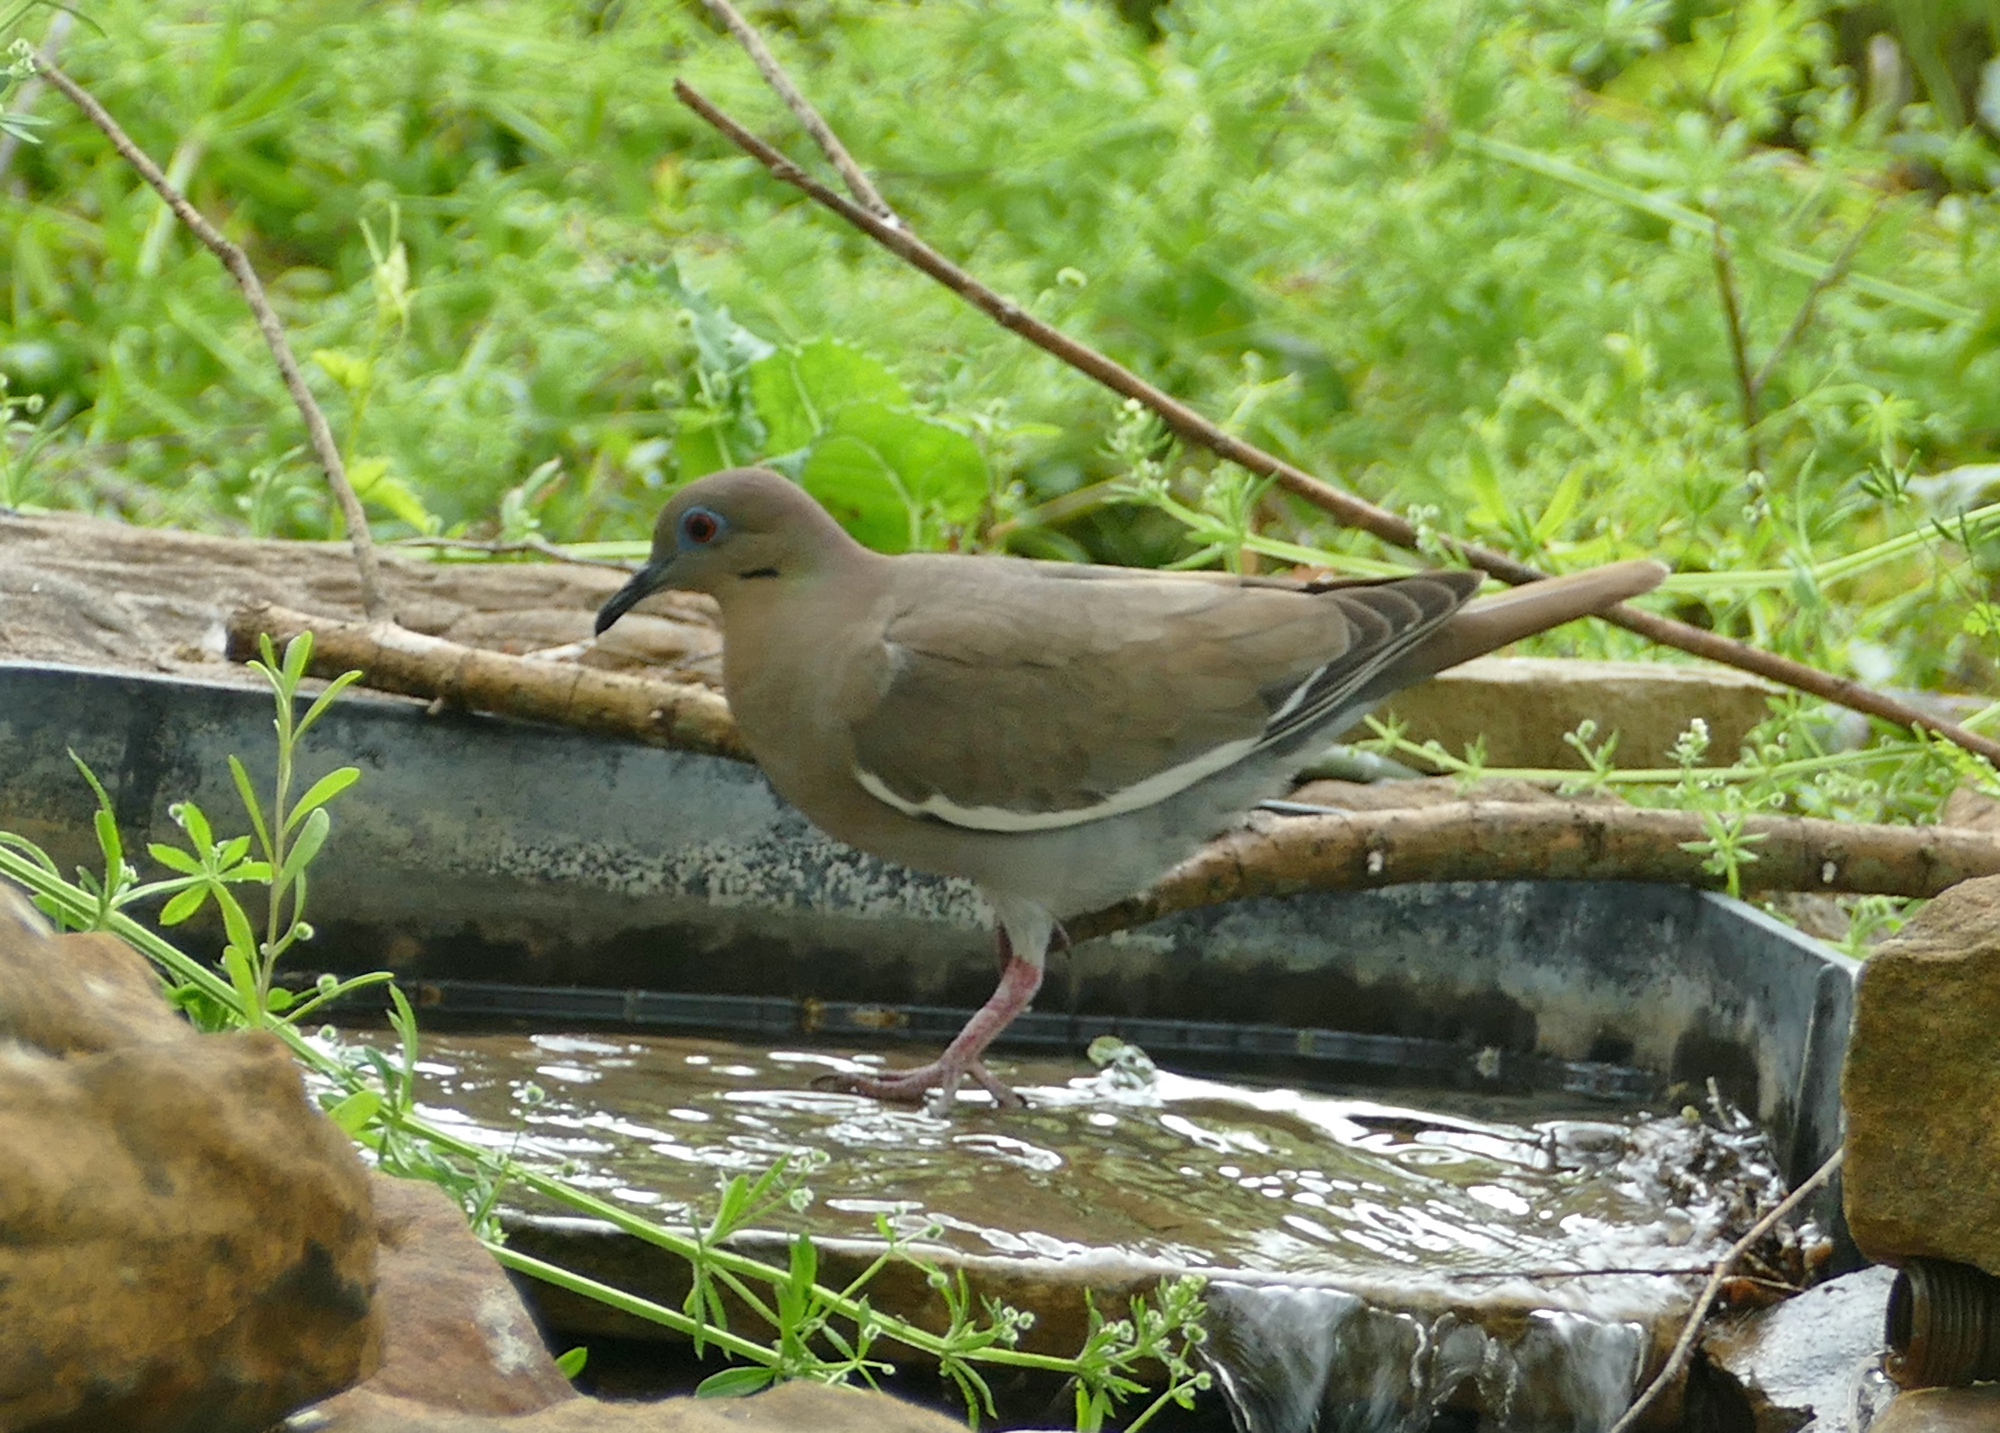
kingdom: Animalia
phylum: Chordata
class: Aves
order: Columbiformes
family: Columbidae
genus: Zenaida
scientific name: Zenaida asiatica
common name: White-winged dove
